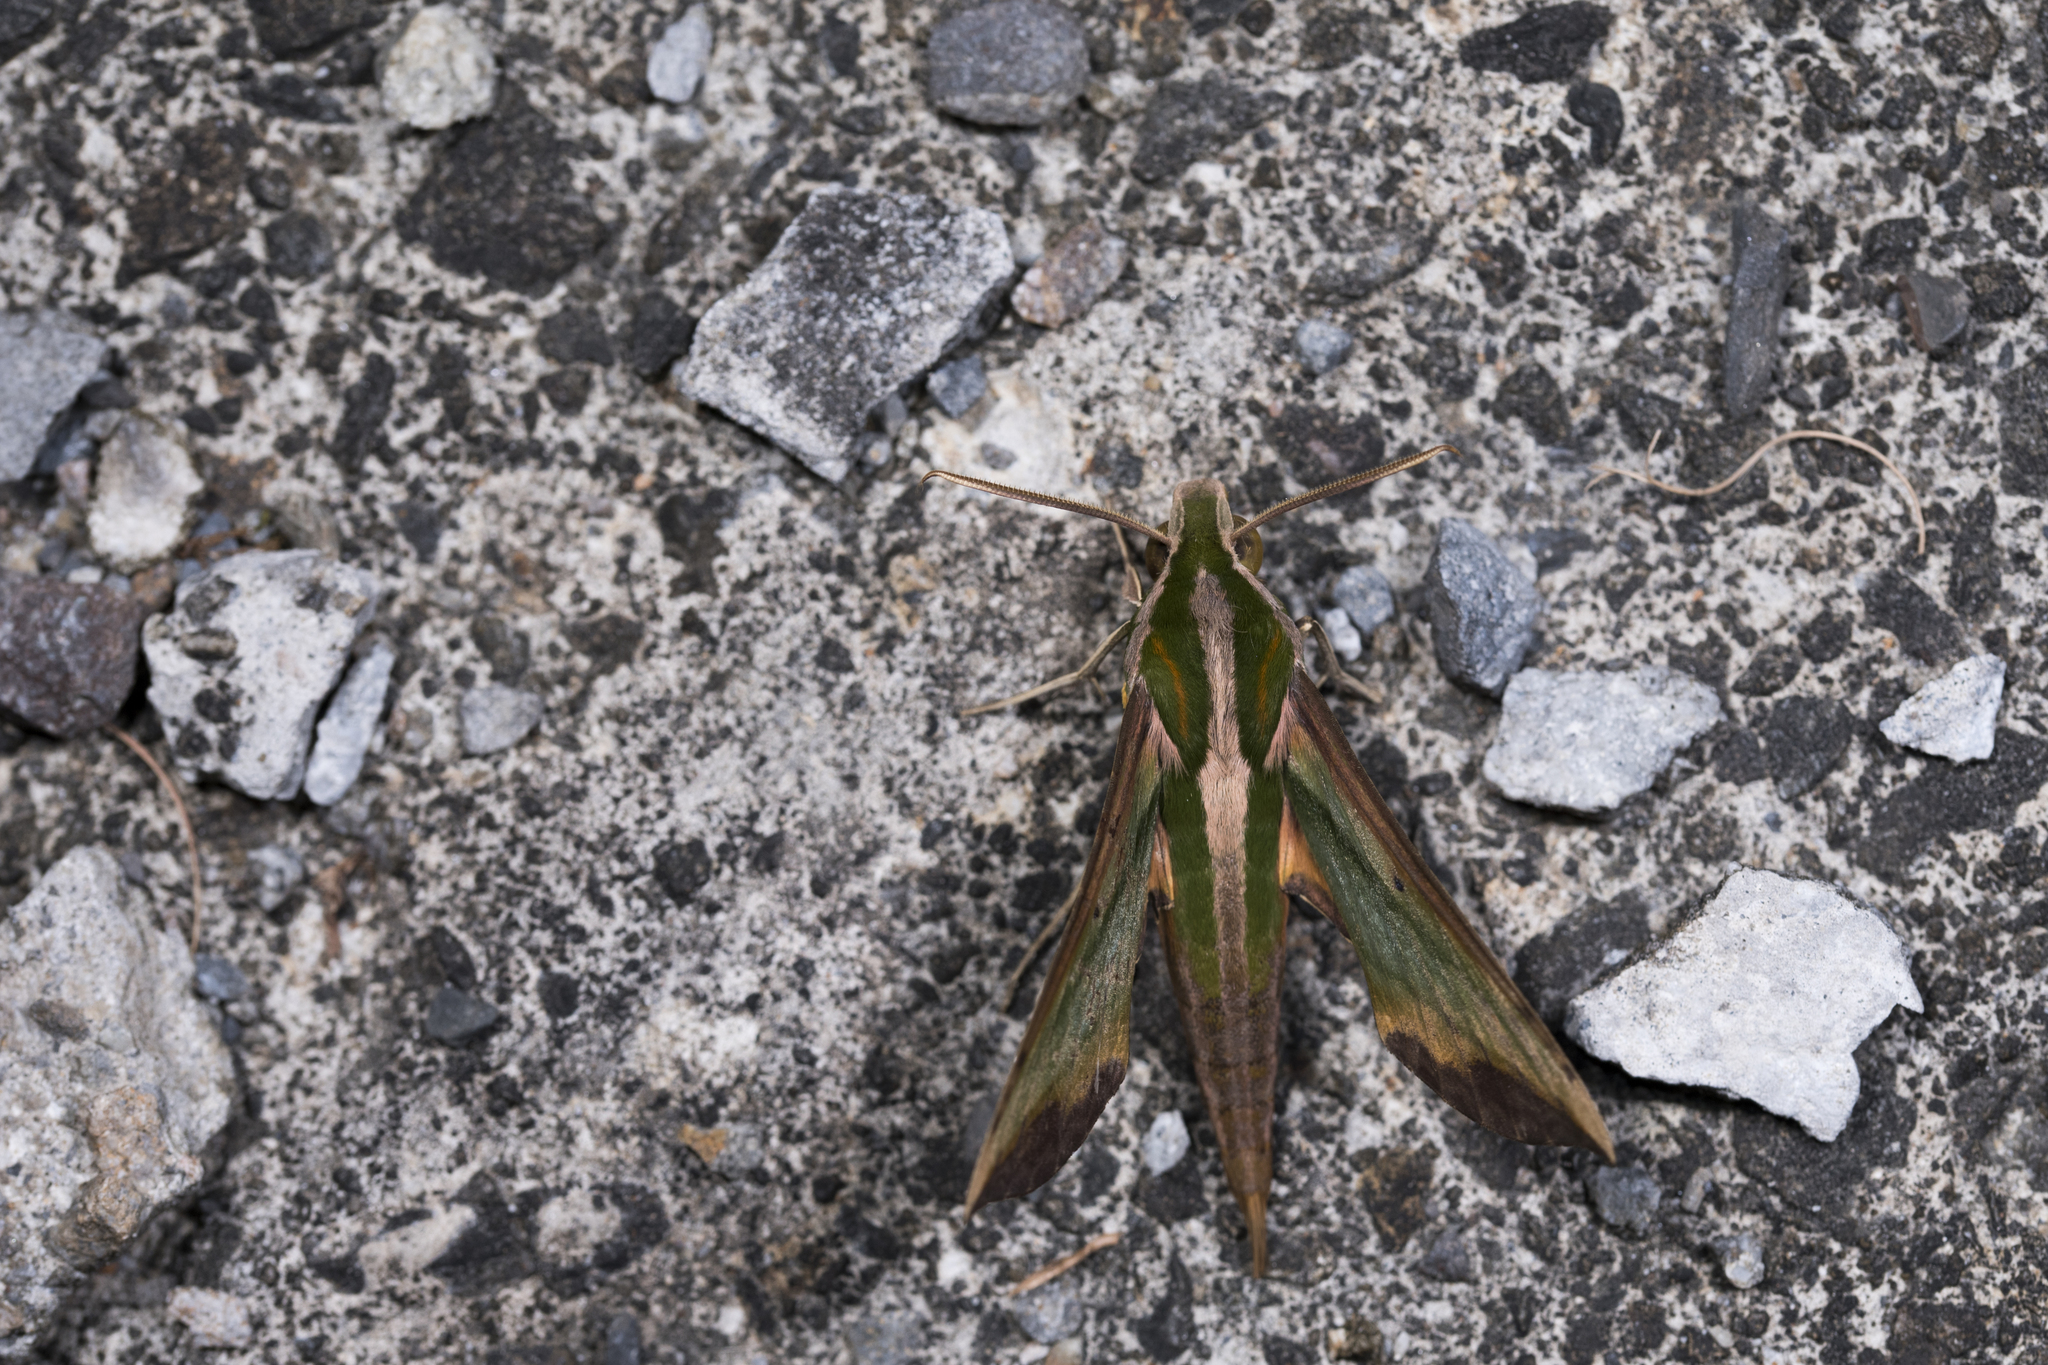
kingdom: Animalia
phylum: Arthropoda
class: Insecta
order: Lepidoptera
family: Sphingidae
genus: Pergesa
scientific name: Pergesa acteus
